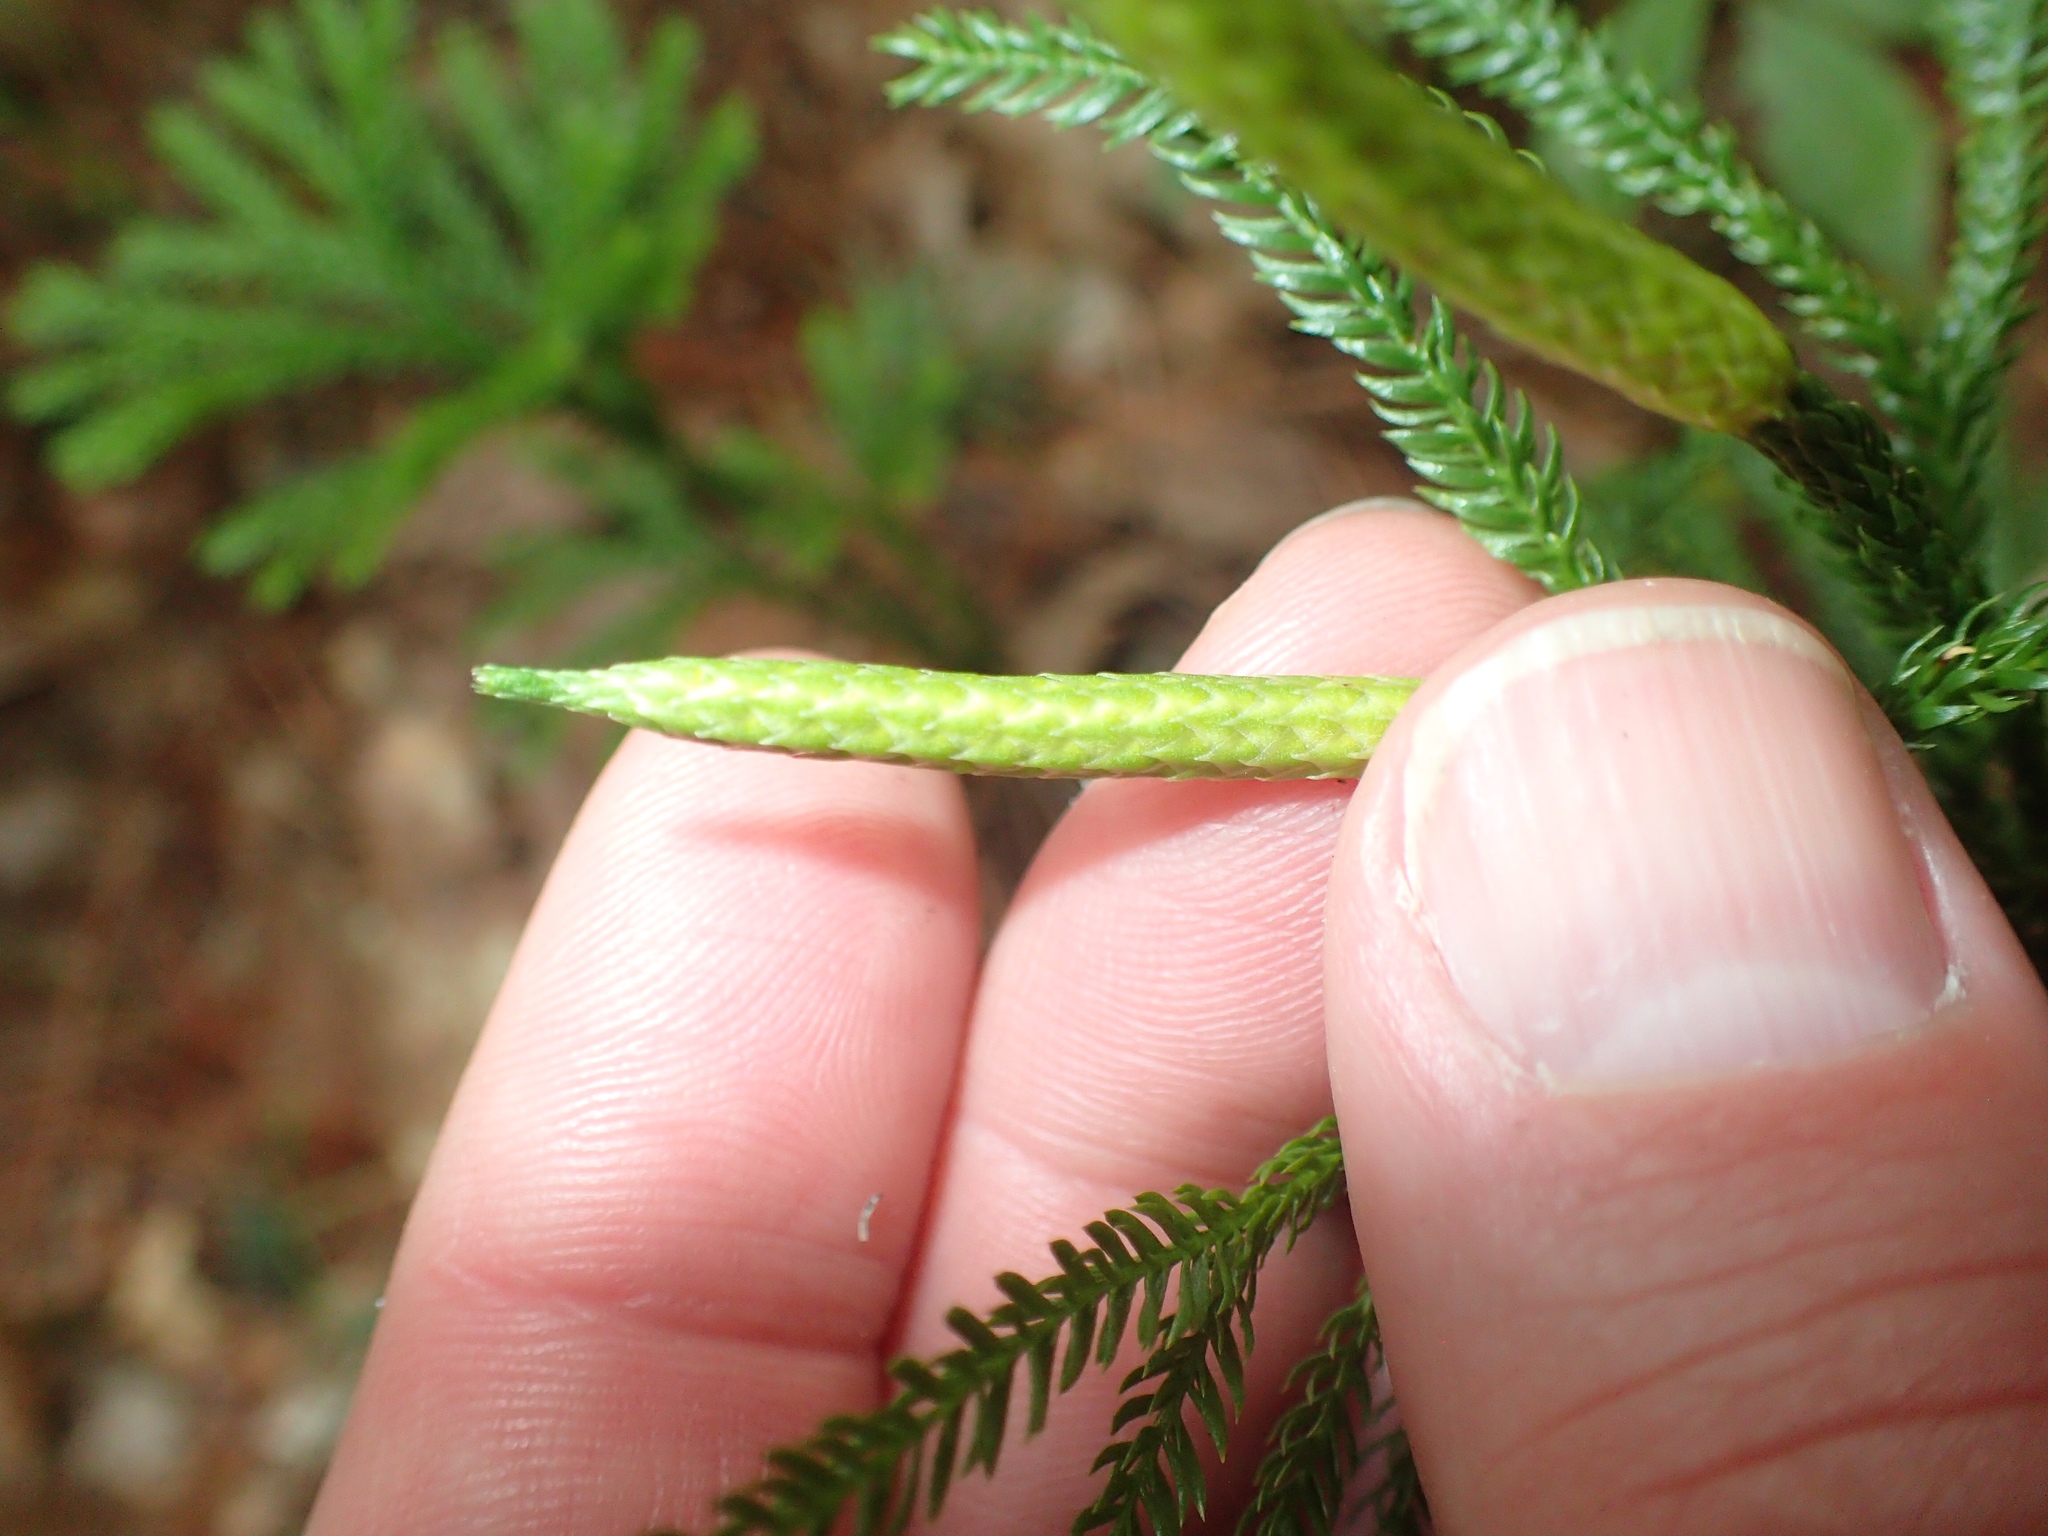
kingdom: Plantae
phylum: Tracheophyta
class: Lycopodiopsida
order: Lycopodiales
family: Lycopodiaceae
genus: Dendrolycopodium
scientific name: Dendrolycopodium obscurum
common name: Common ground-pine
